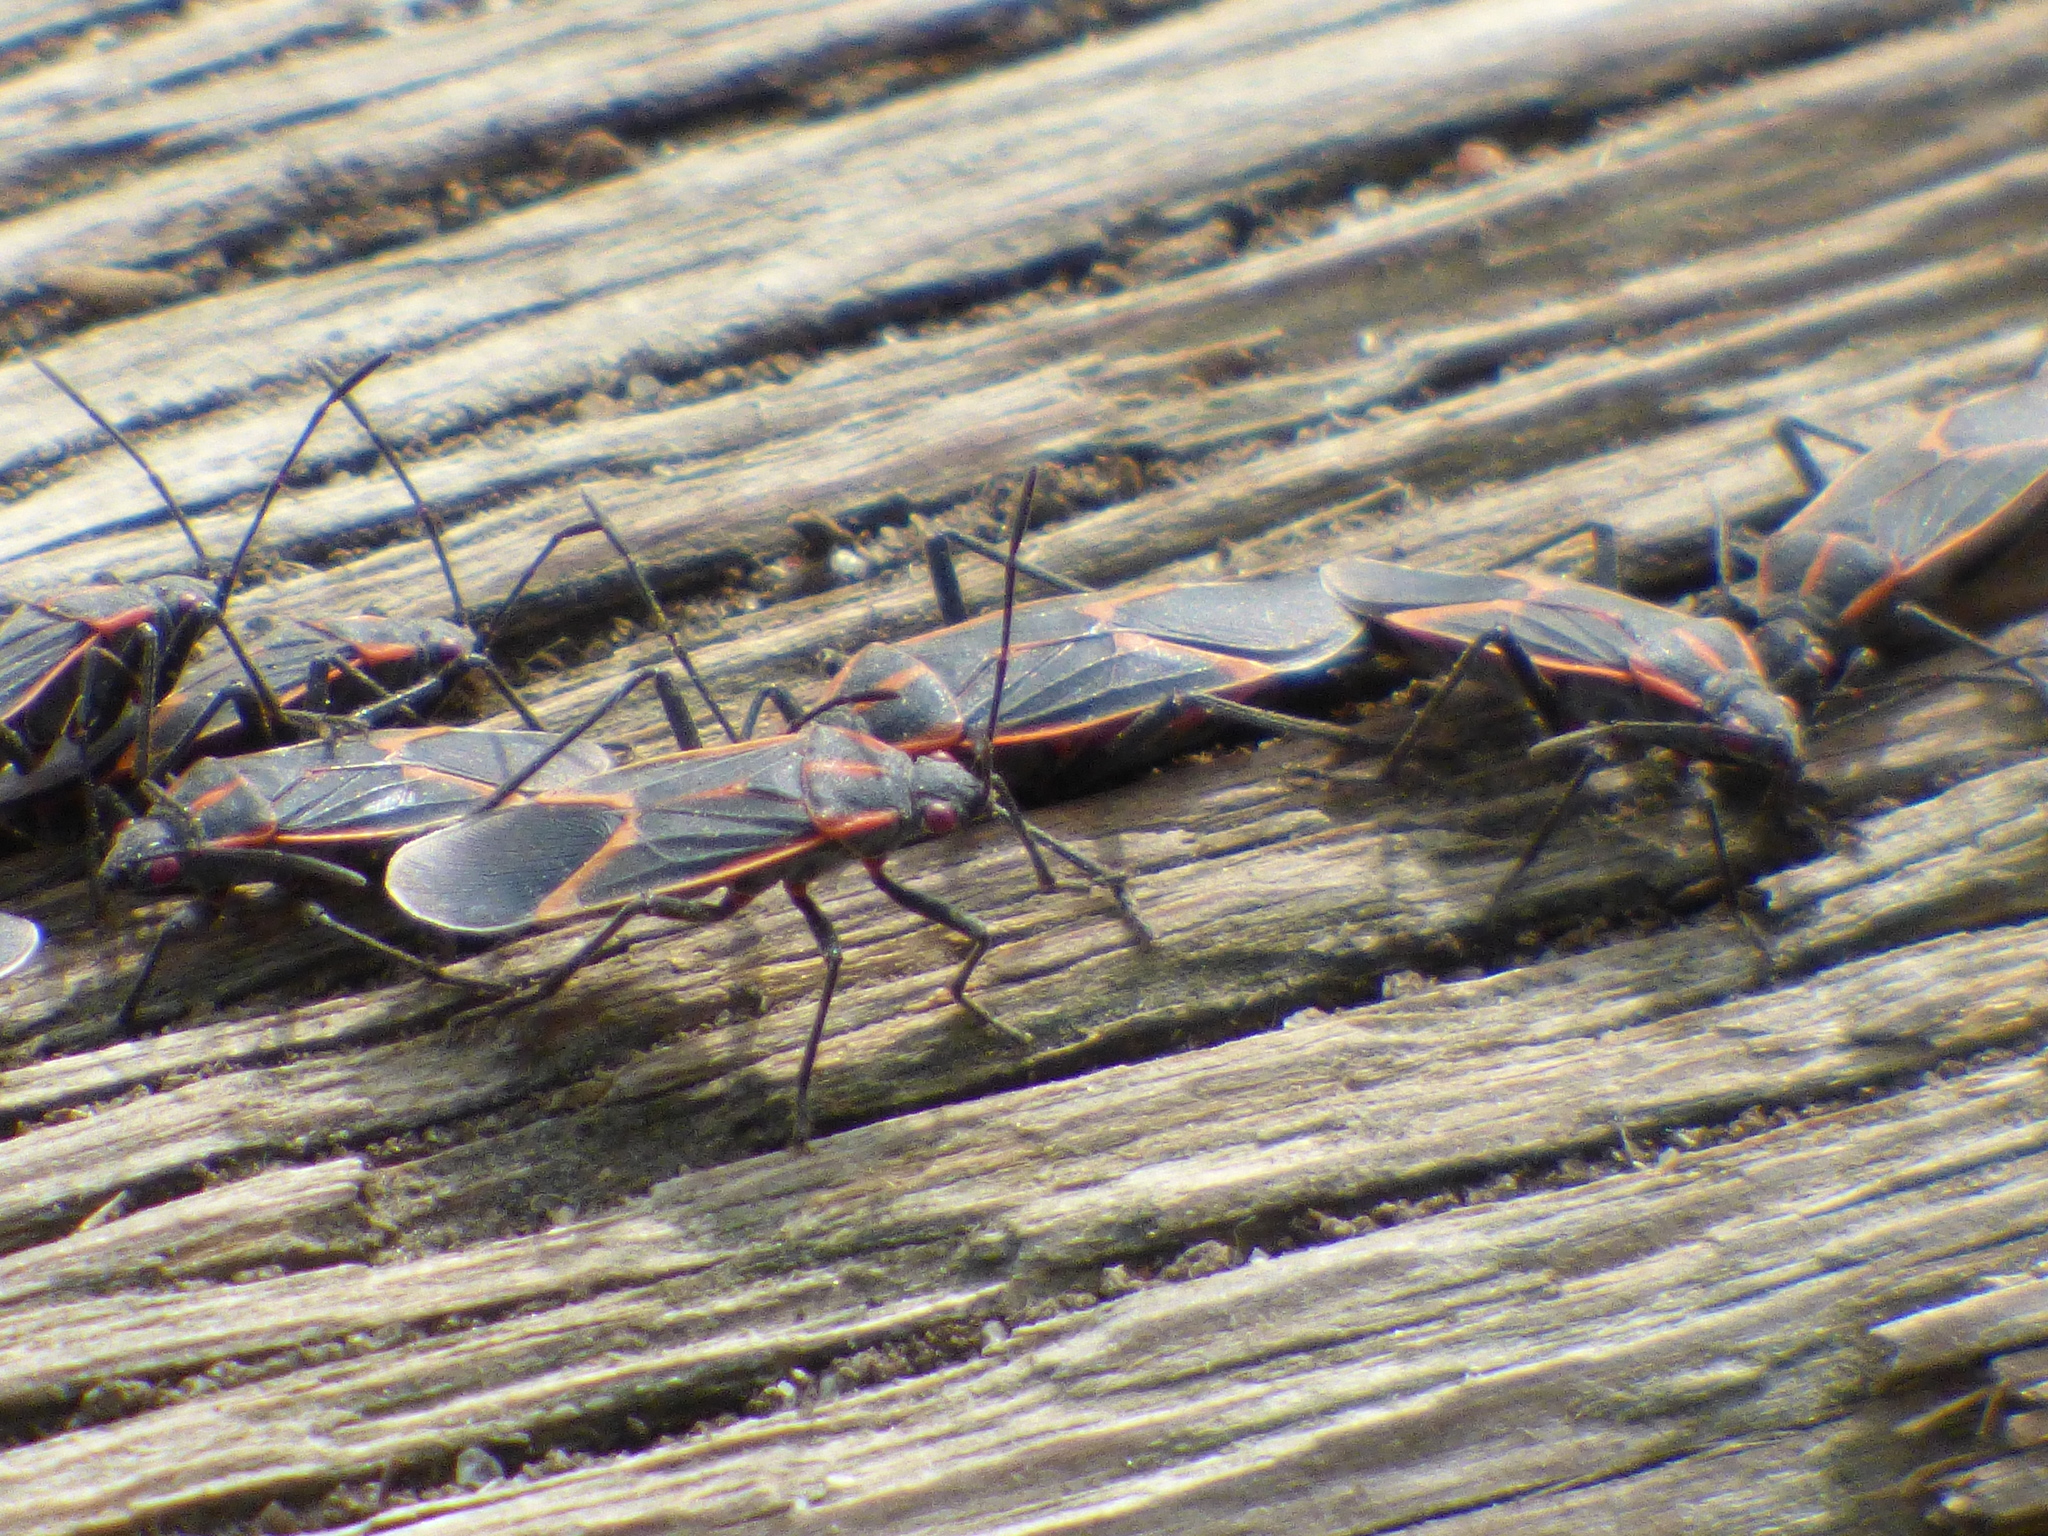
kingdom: Animalia
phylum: Arthropoda
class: Insecta
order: Hemiptera
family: Rhopalidae
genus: Boisea
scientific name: Boisea trivittata
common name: Boxelder bug
